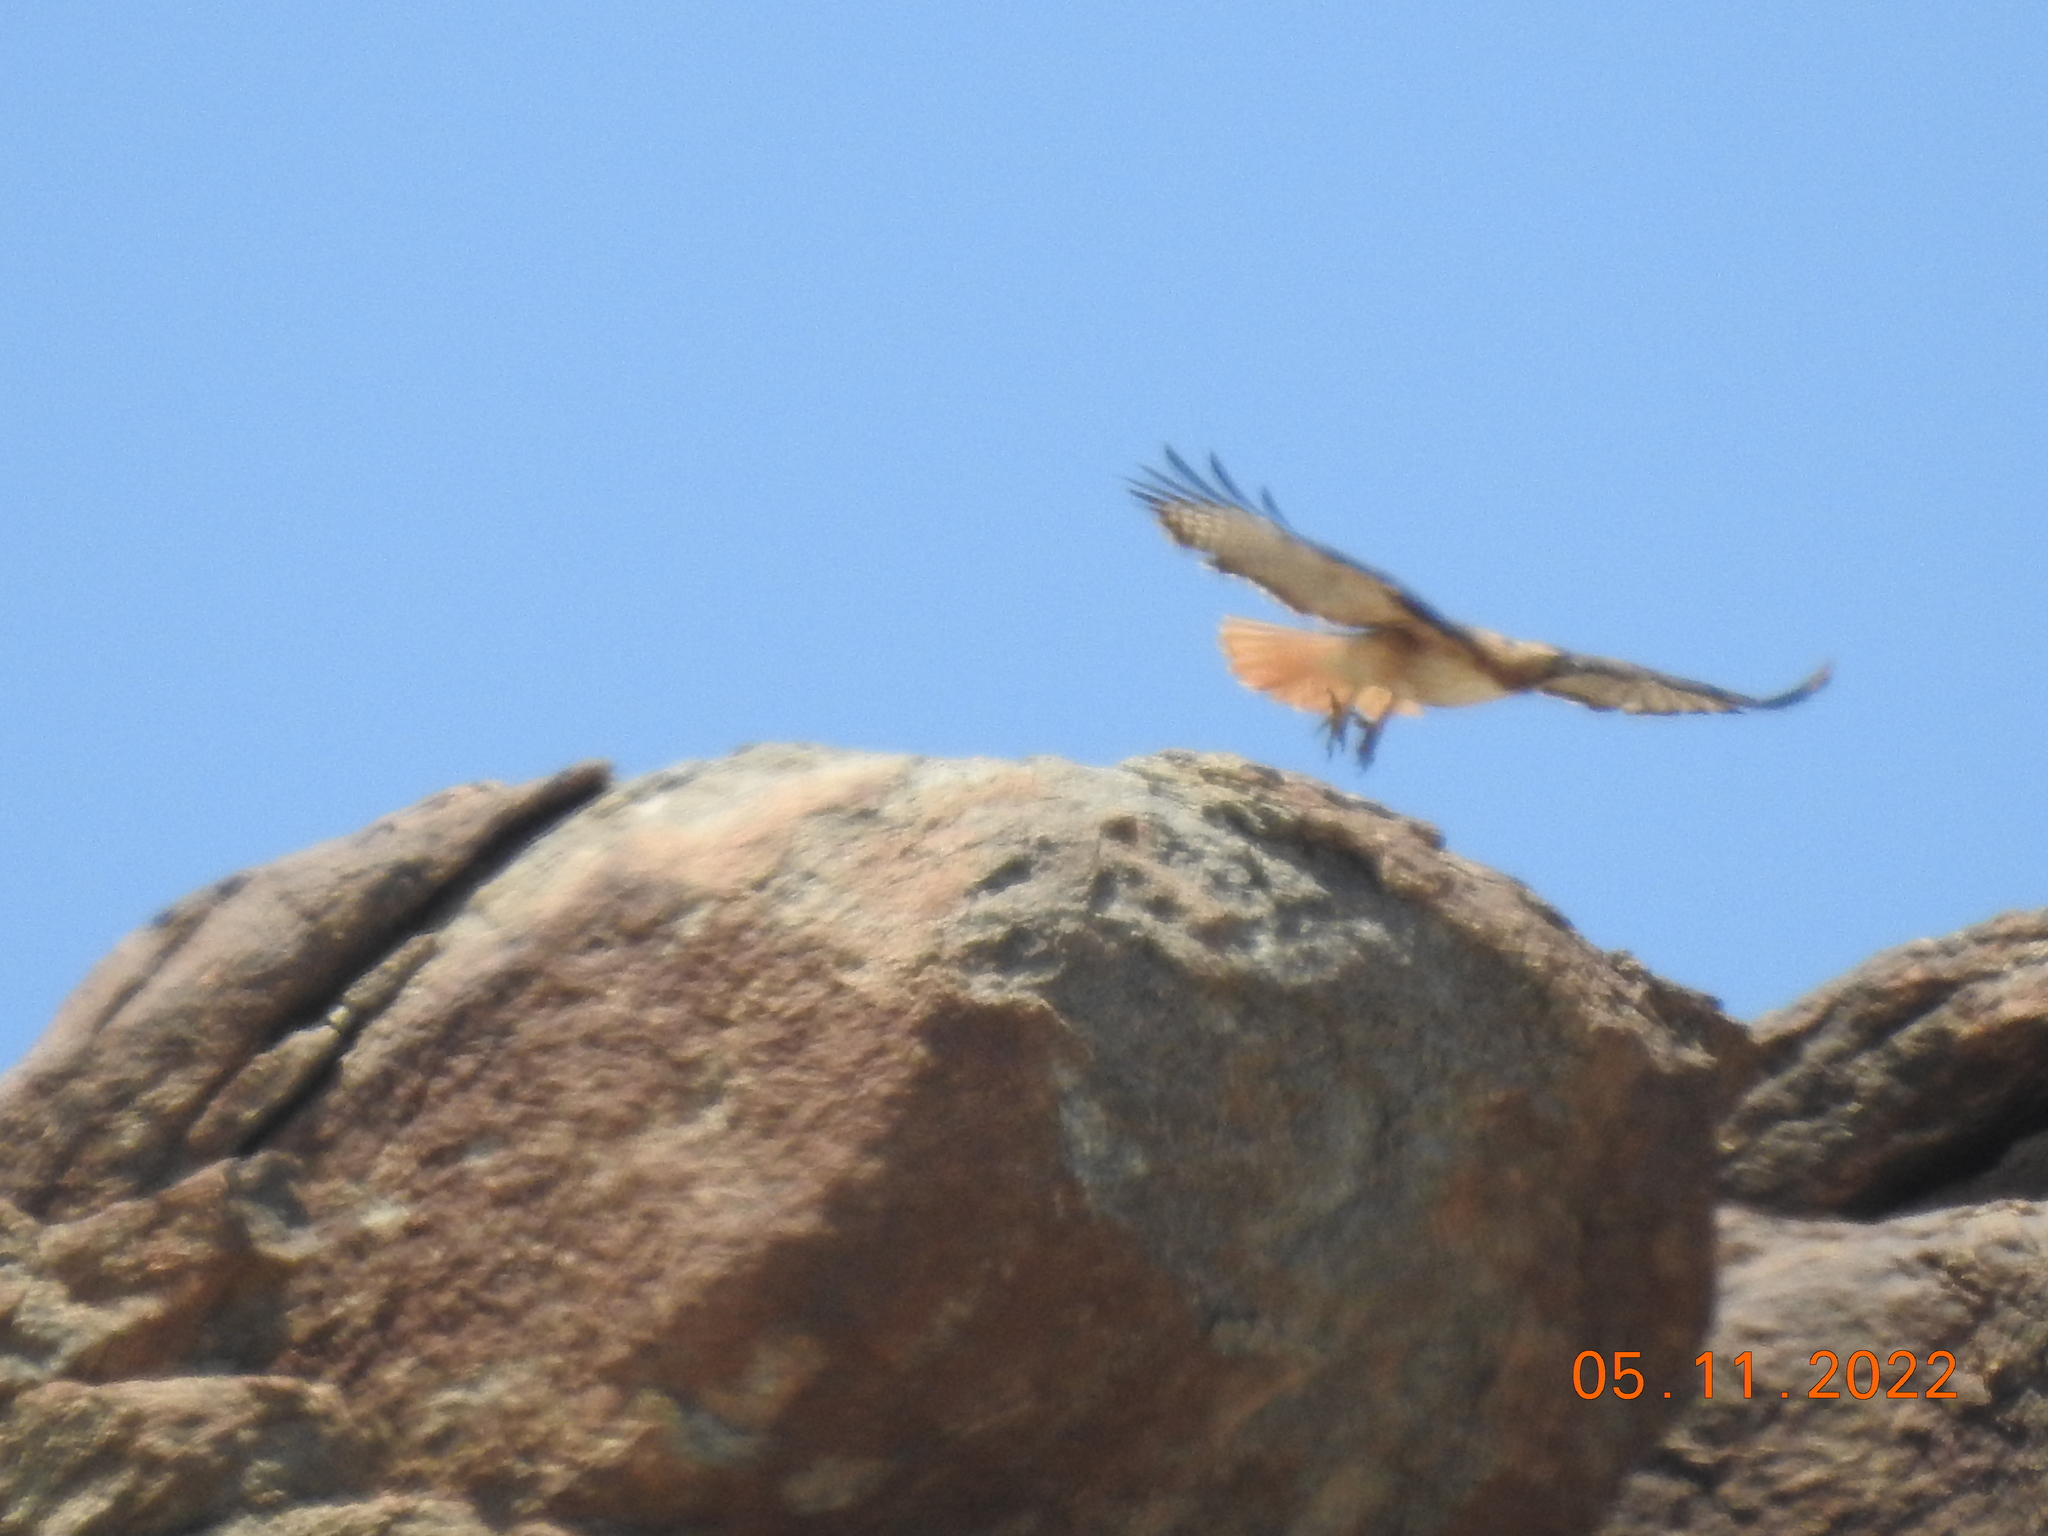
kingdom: Animalia
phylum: Chordata
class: Aves
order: Accipitriformes
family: Accipitridae
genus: Buteo
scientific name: Buteo jamaicensis
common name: Red-tailed hawk
